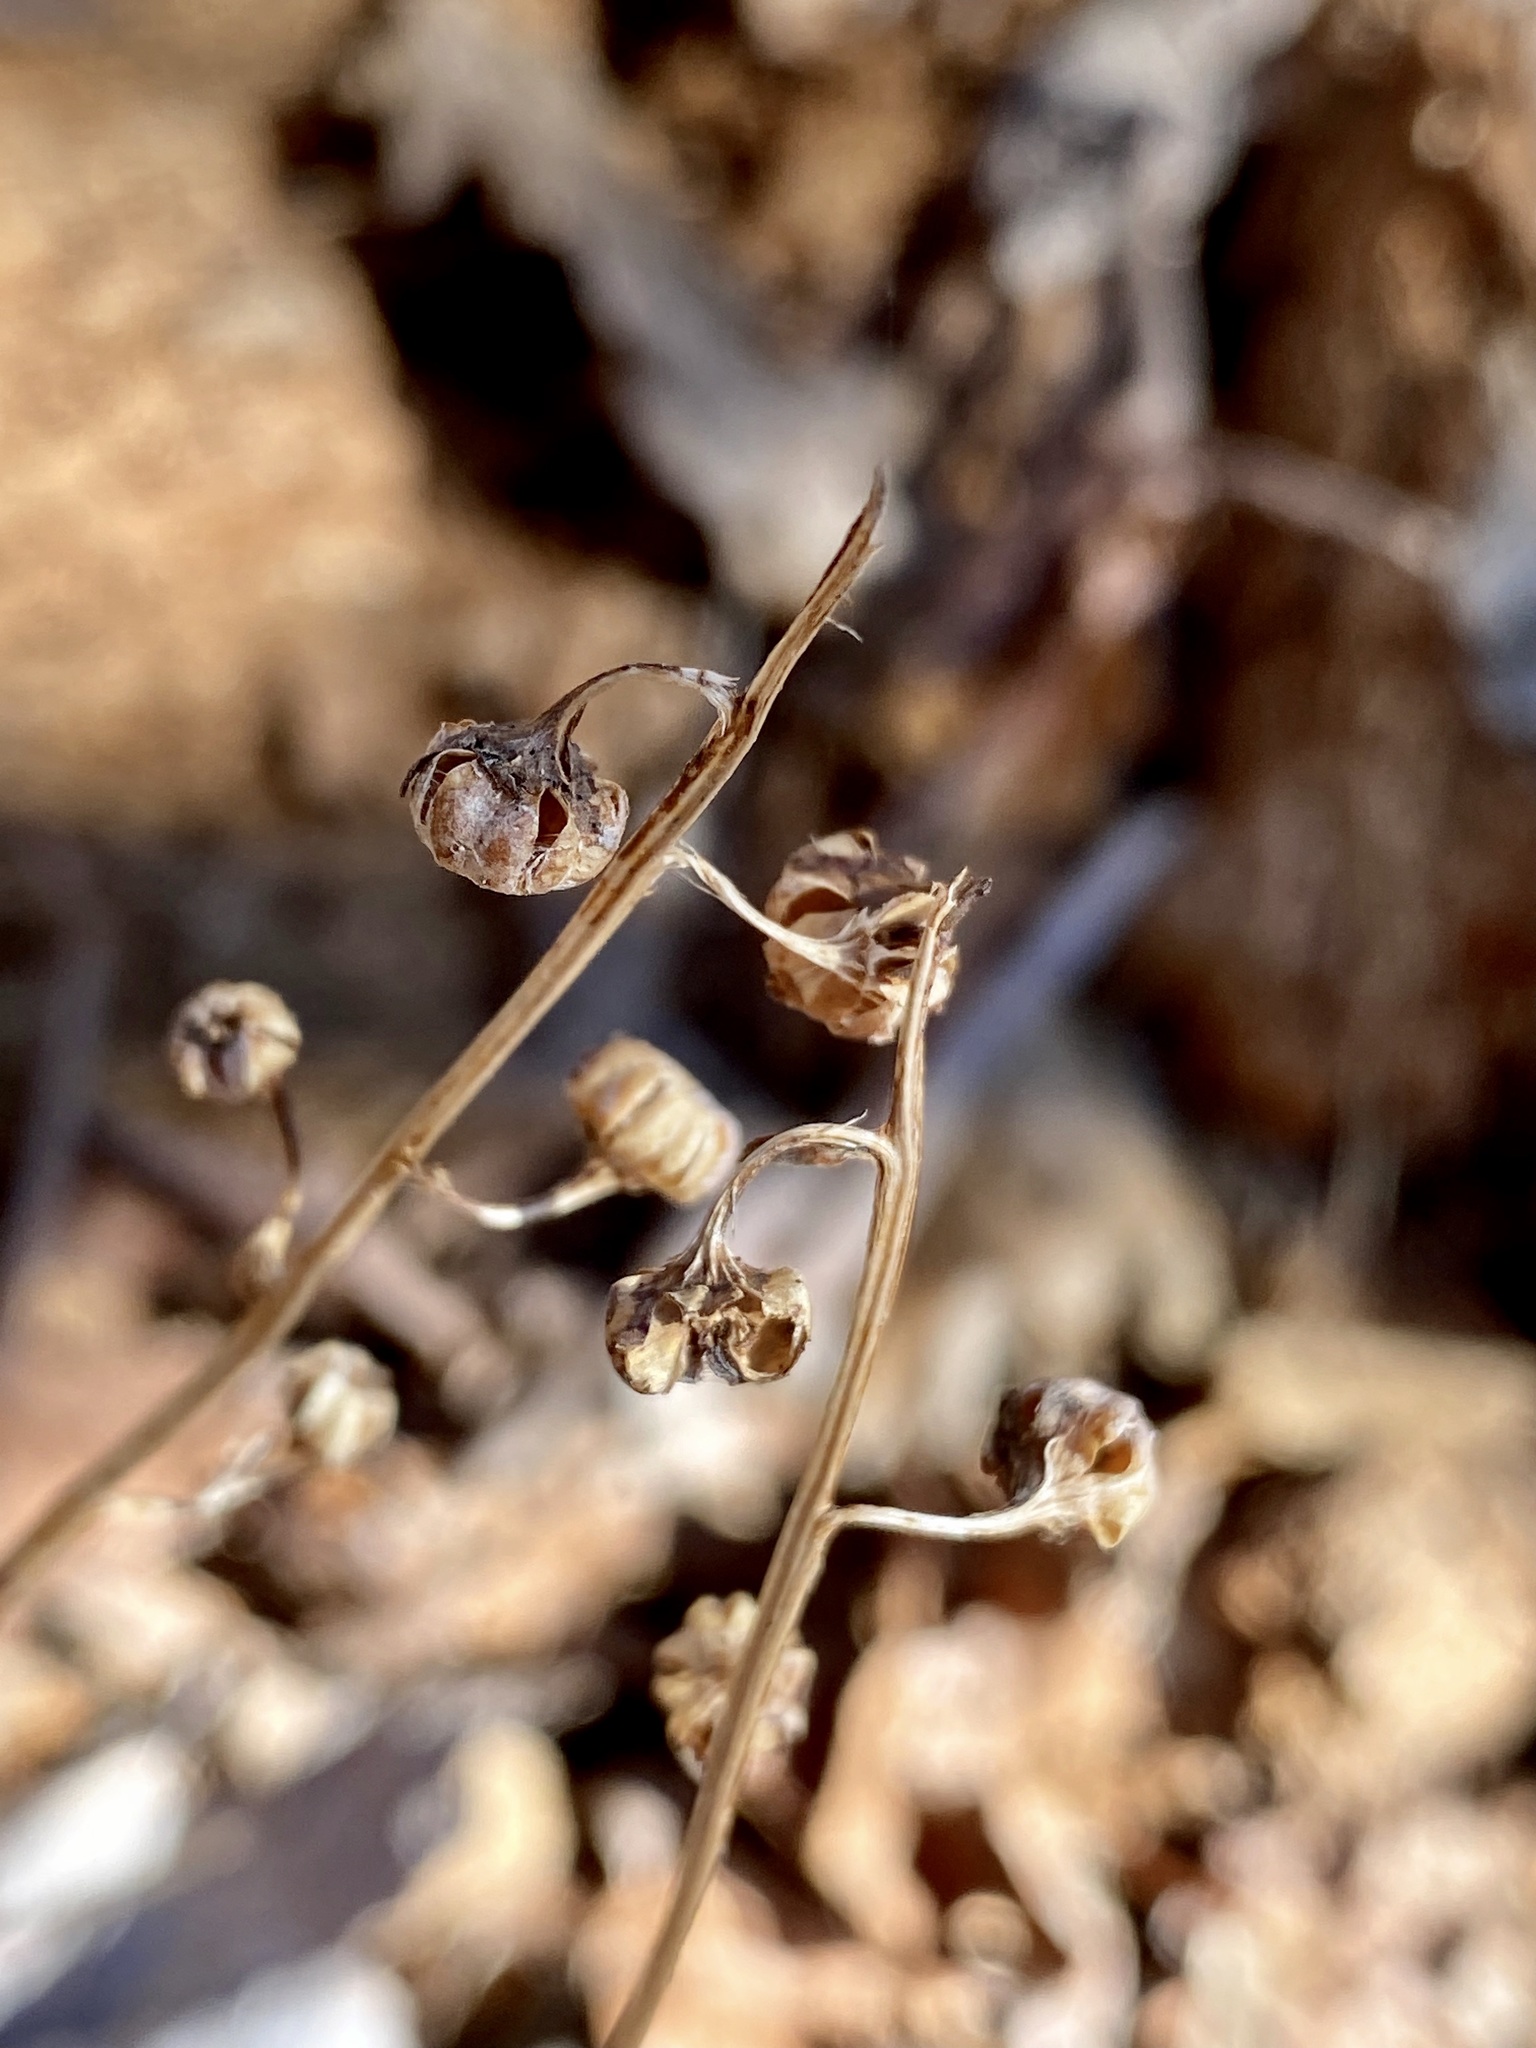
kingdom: Plantae
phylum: Tracheophyta
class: Magnoliopsida
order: Ericales
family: Ericaceae
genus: Pyrola
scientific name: Pyrola americana
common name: American wintergreen
